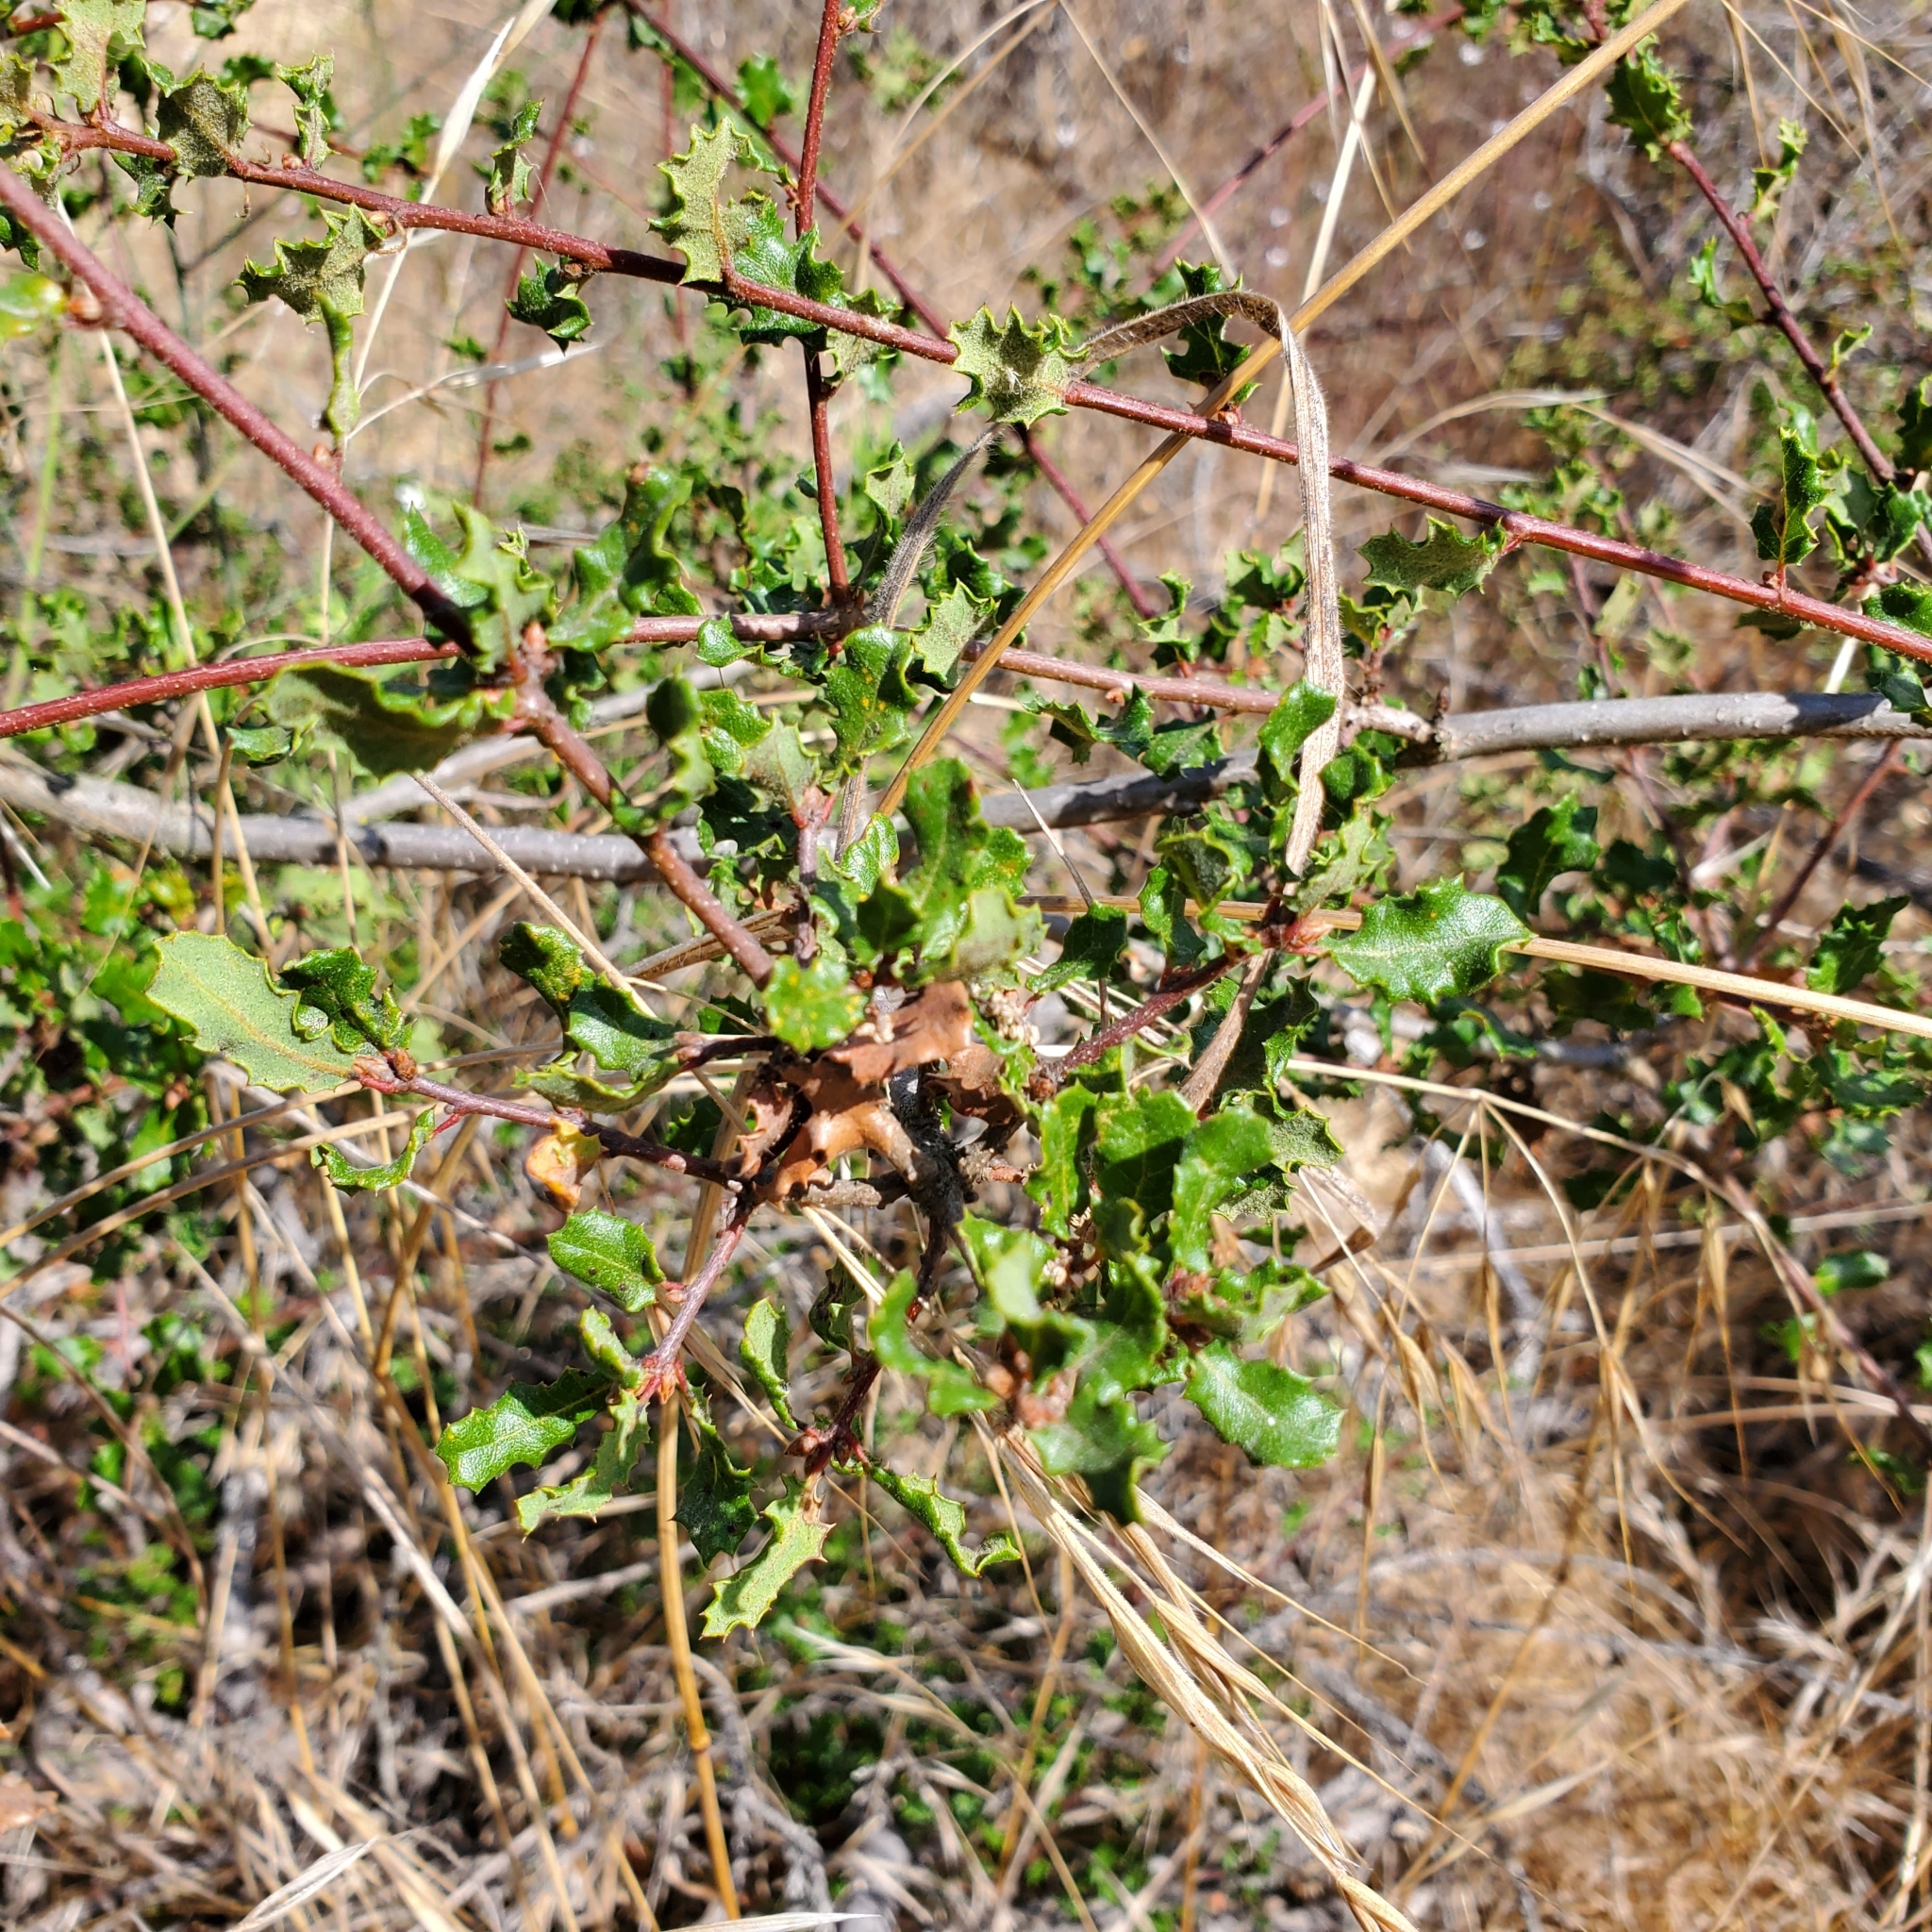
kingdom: Plantae
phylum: Tracheophyta
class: Magnoliopsida
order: Fagales
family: Fagaceae
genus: Quercus
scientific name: Quercus dumosa
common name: Coastal sage scrub oak
